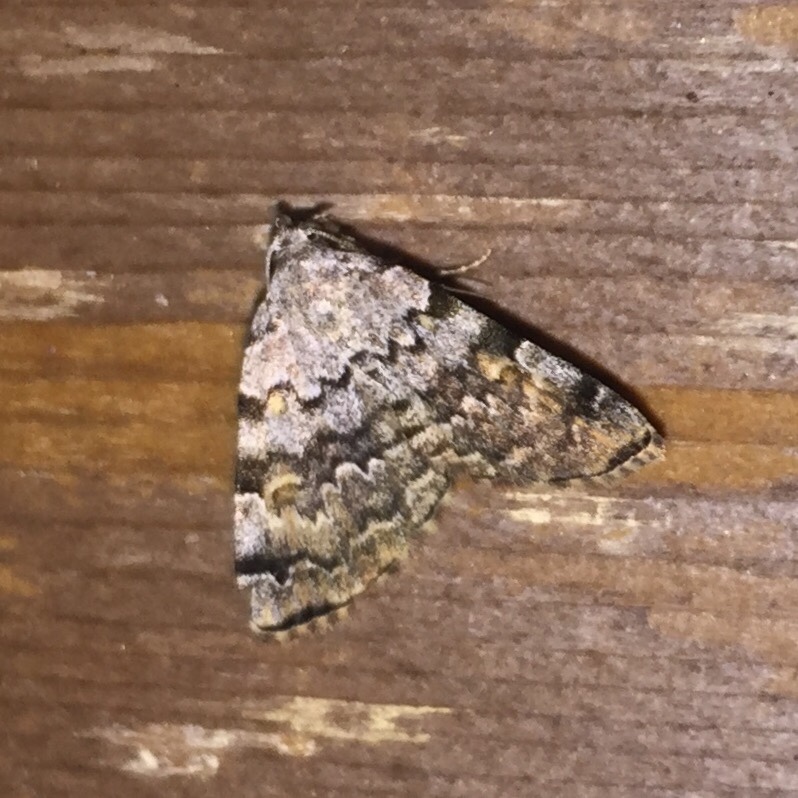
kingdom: Animalia
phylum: Arthropoda
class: Insecta
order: Lepidoptera
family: Erebidae
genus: Idia
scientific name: Idia americalis
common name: American idia moth
